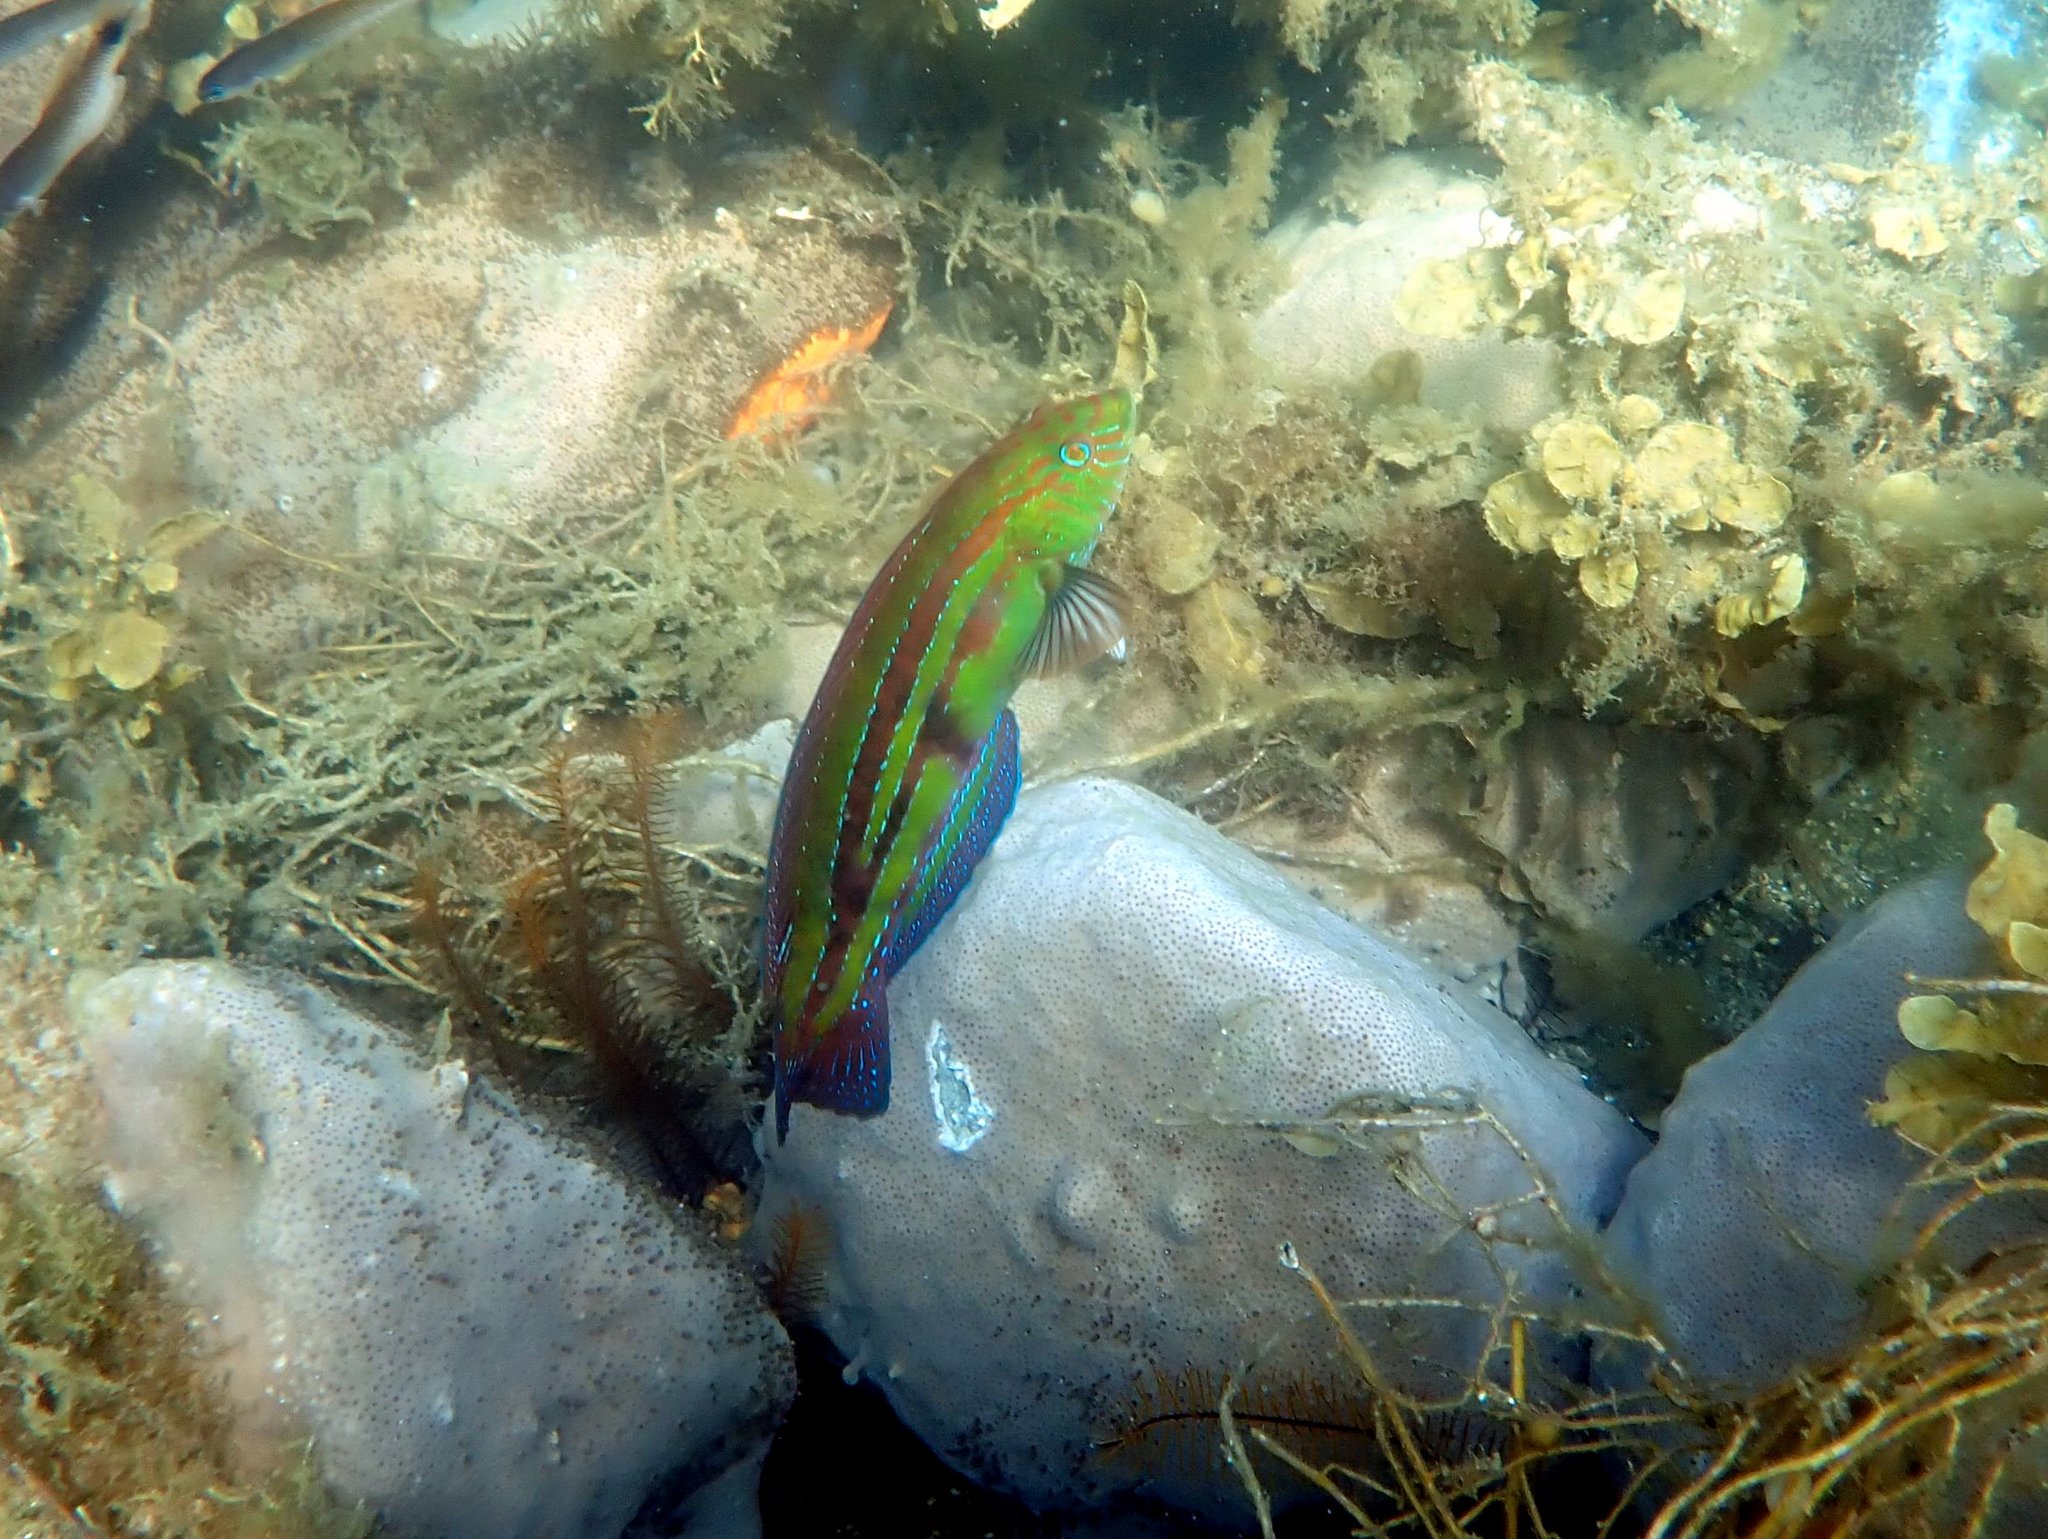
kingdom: Animalia
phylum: Chordata
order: Perciformes
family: Labridae
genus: Pictilabrus
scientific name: Pictilabrus laticlavius
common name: Patrician wrasse
